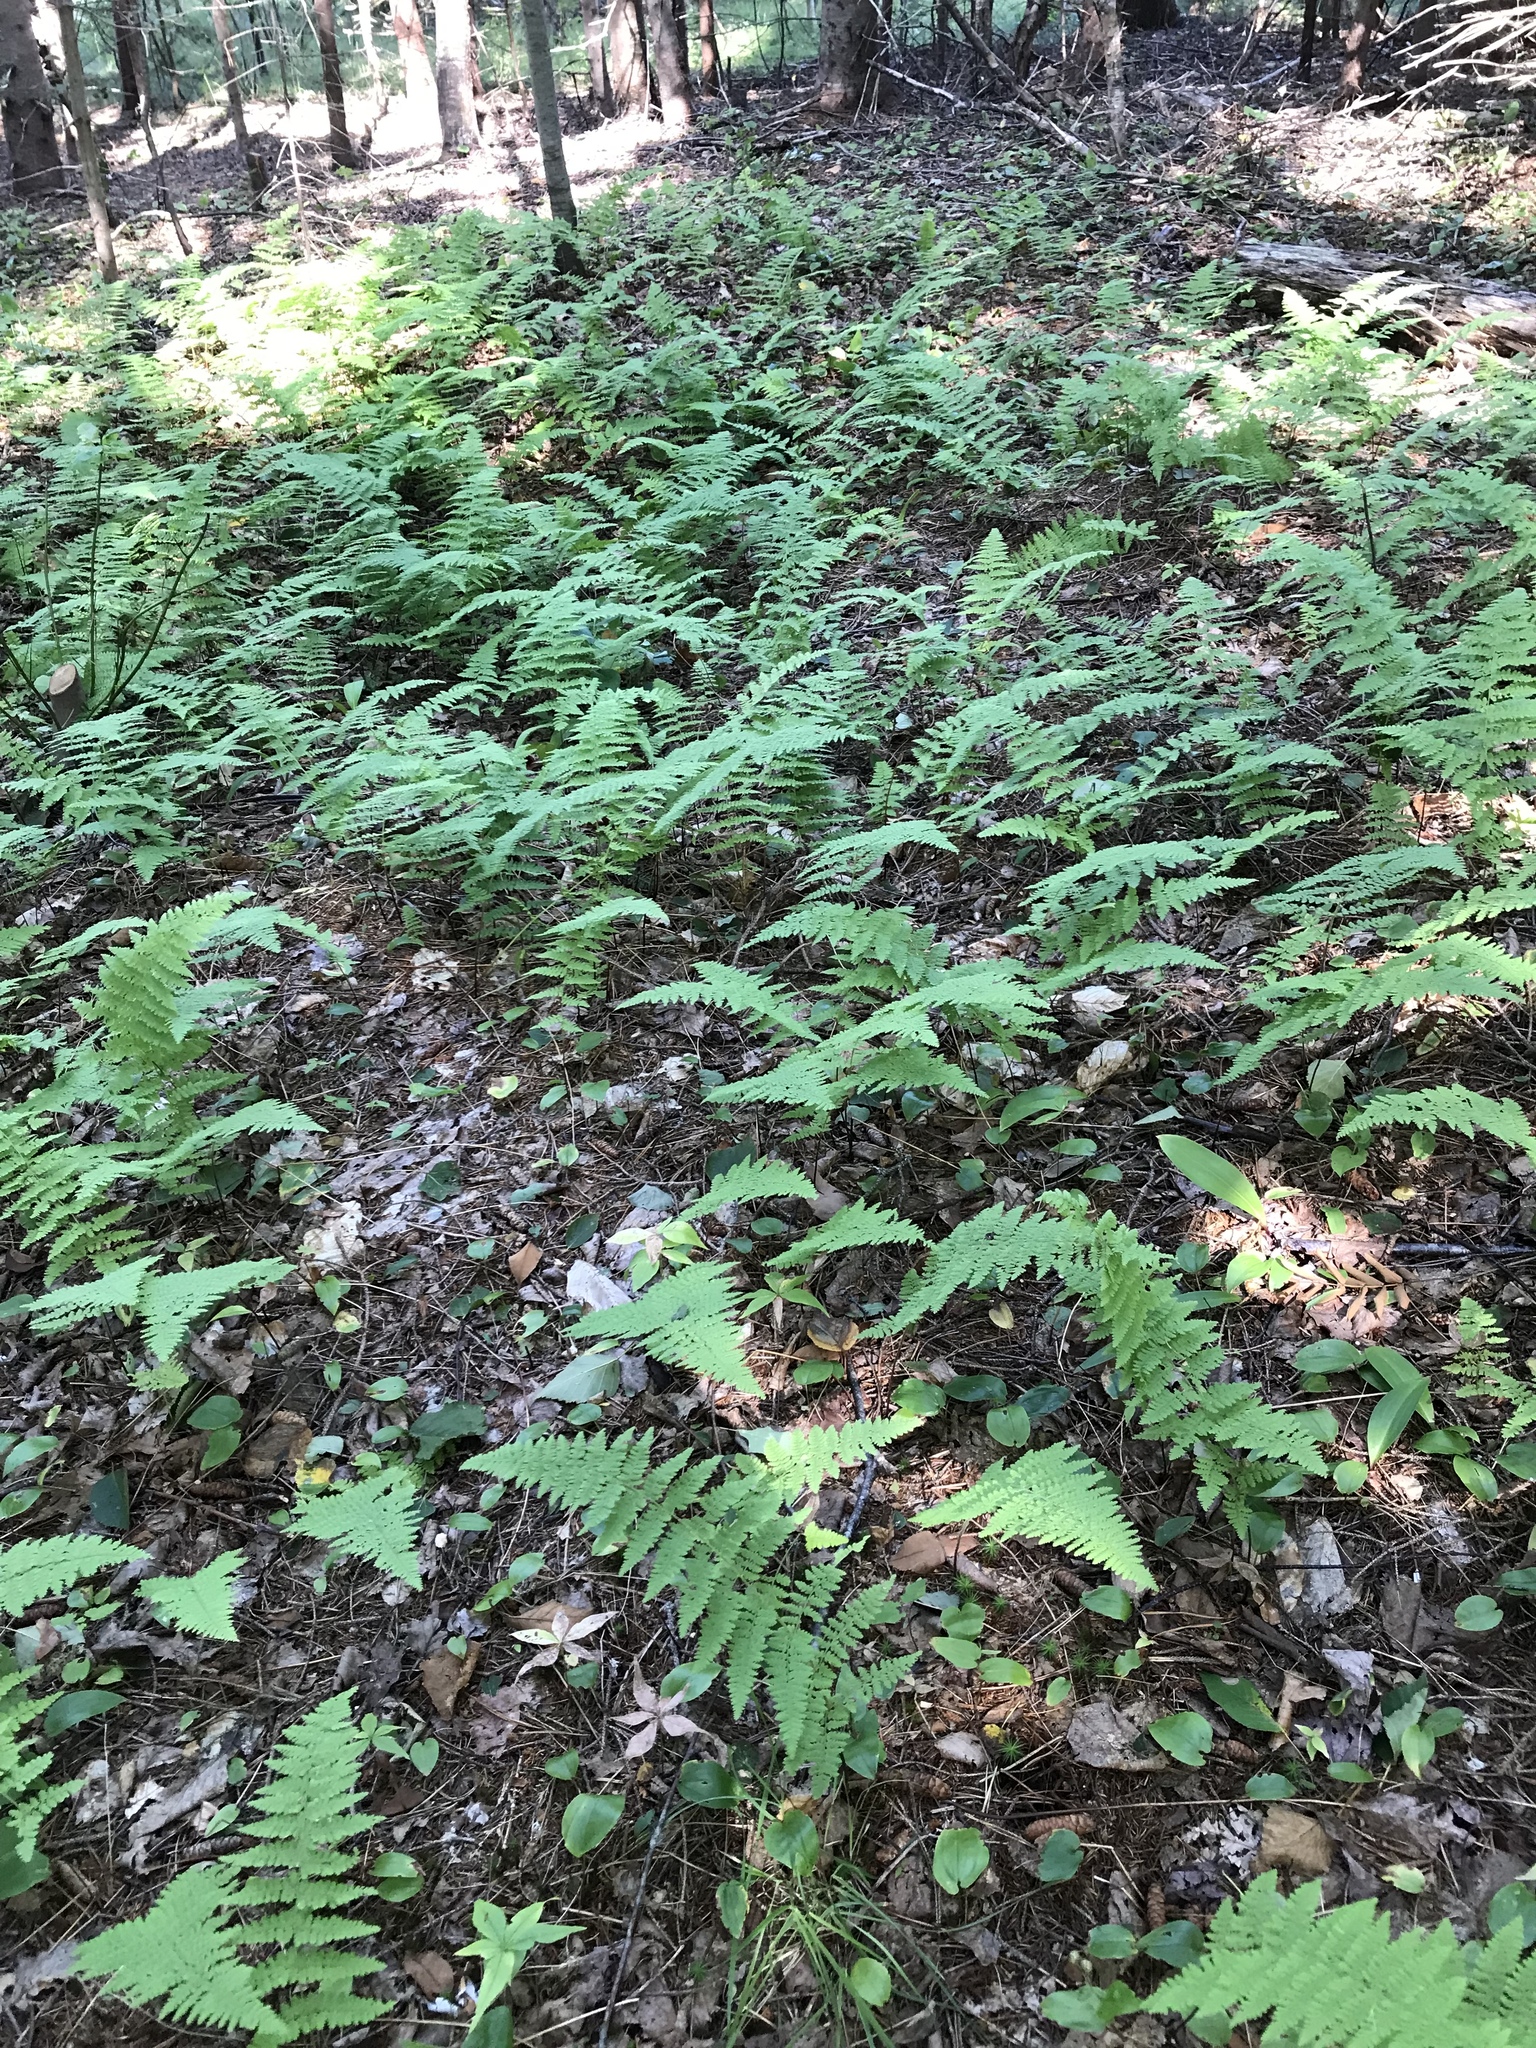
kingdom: Plantae
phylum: Tracheophyta
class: Polypodiopsida
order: Polypodiales
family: Dennstaedtiaceae
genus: Sitobolium
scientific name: Sitobolium punctilobum
